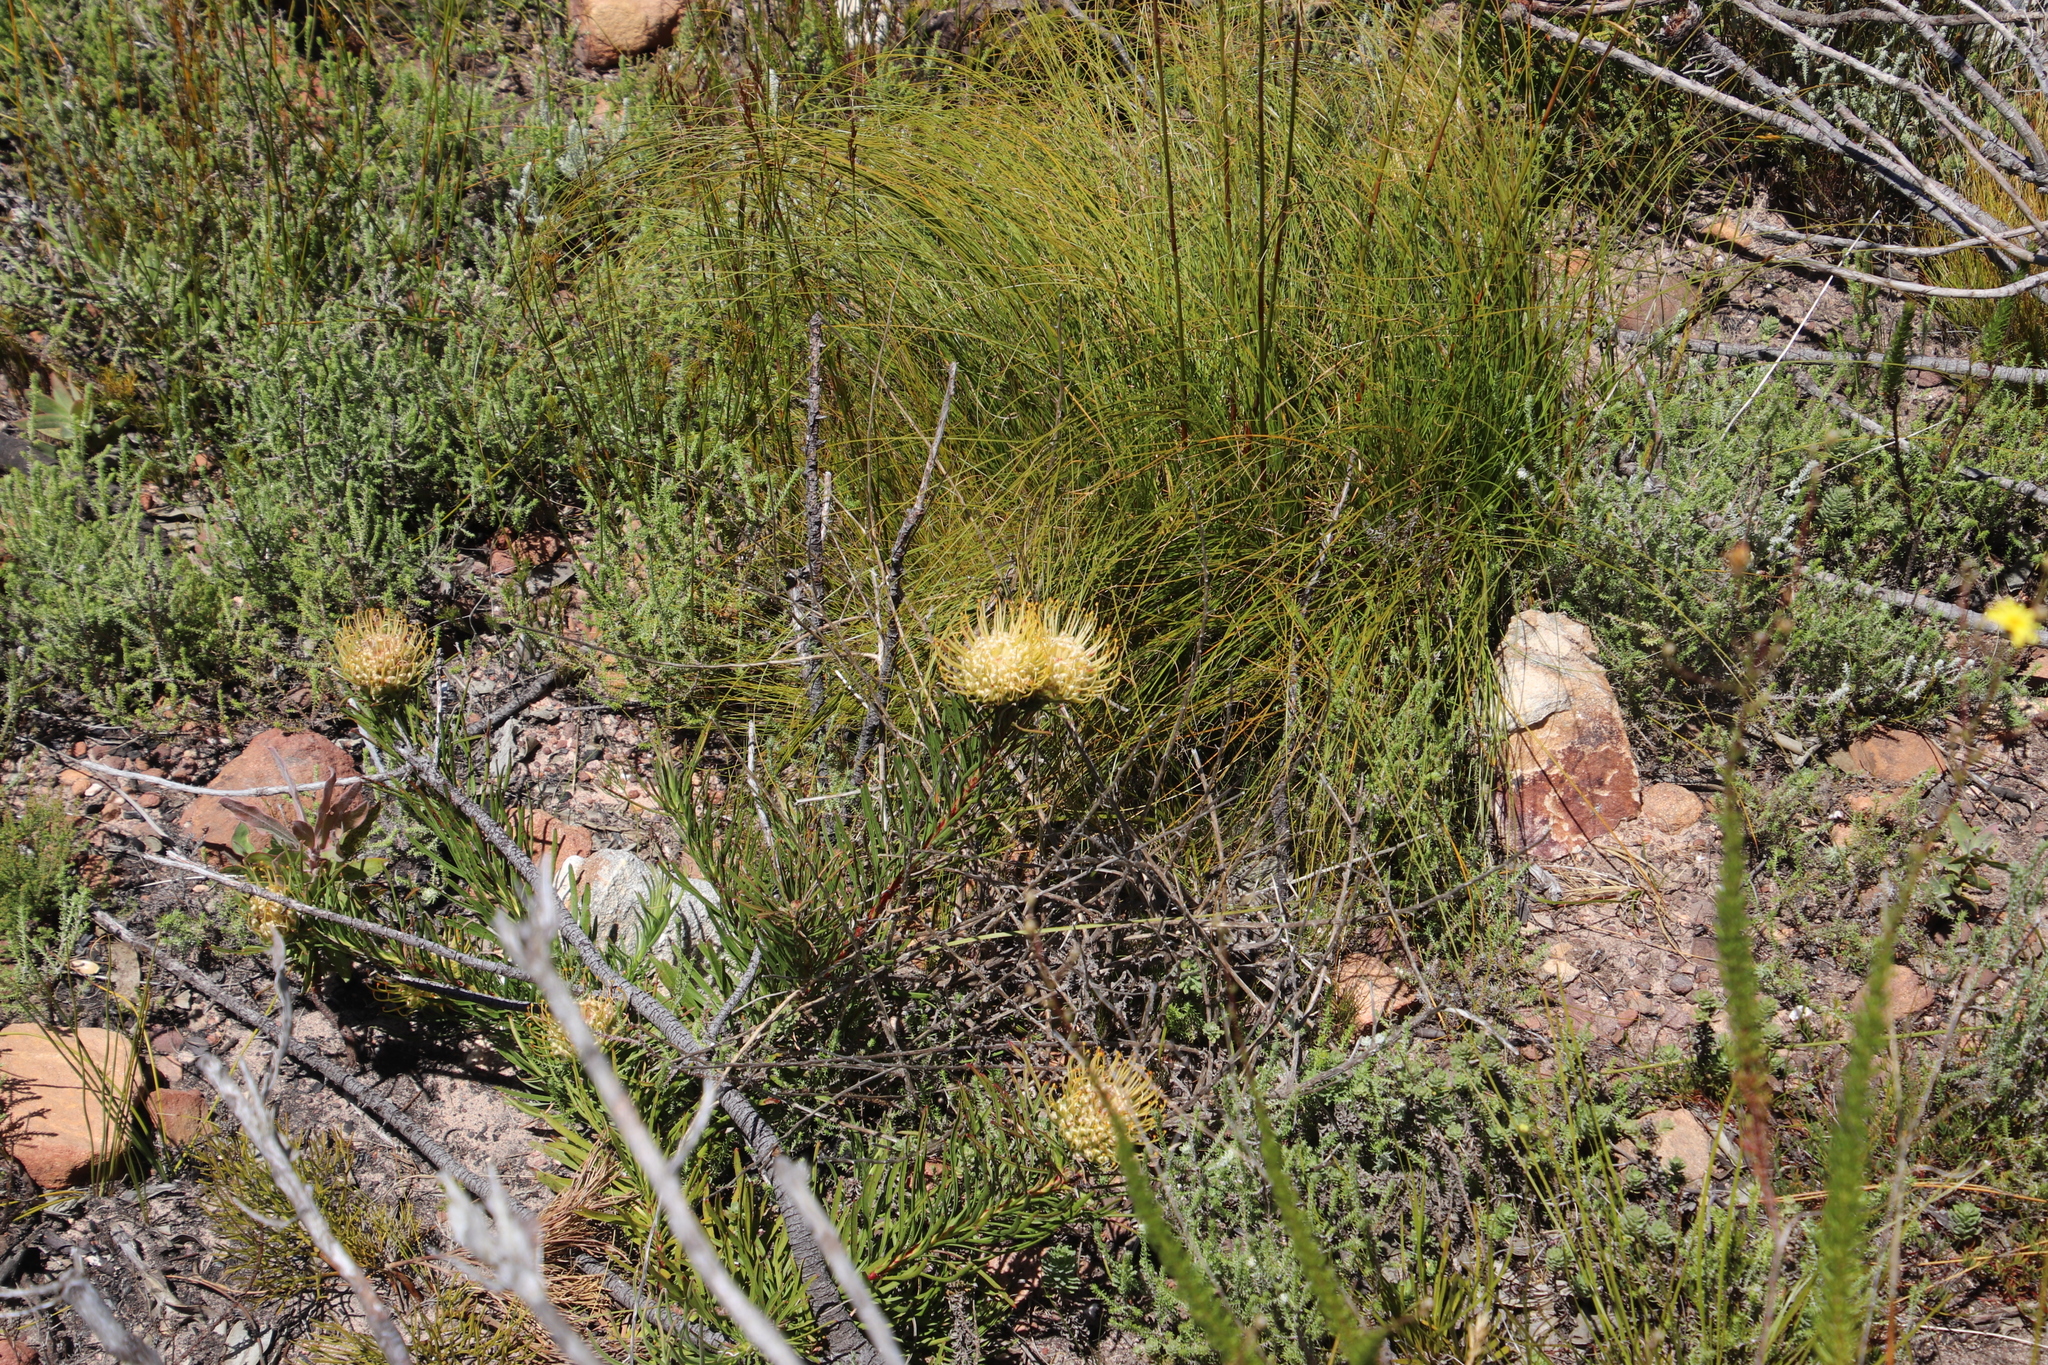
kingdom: Plantae
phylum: Tracheophyta
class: Magnoliopsida
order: Proteales
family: Proteaceae
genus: Leucospermum
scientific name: Leucospermum lineare
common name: Needle-leaf pincushion
